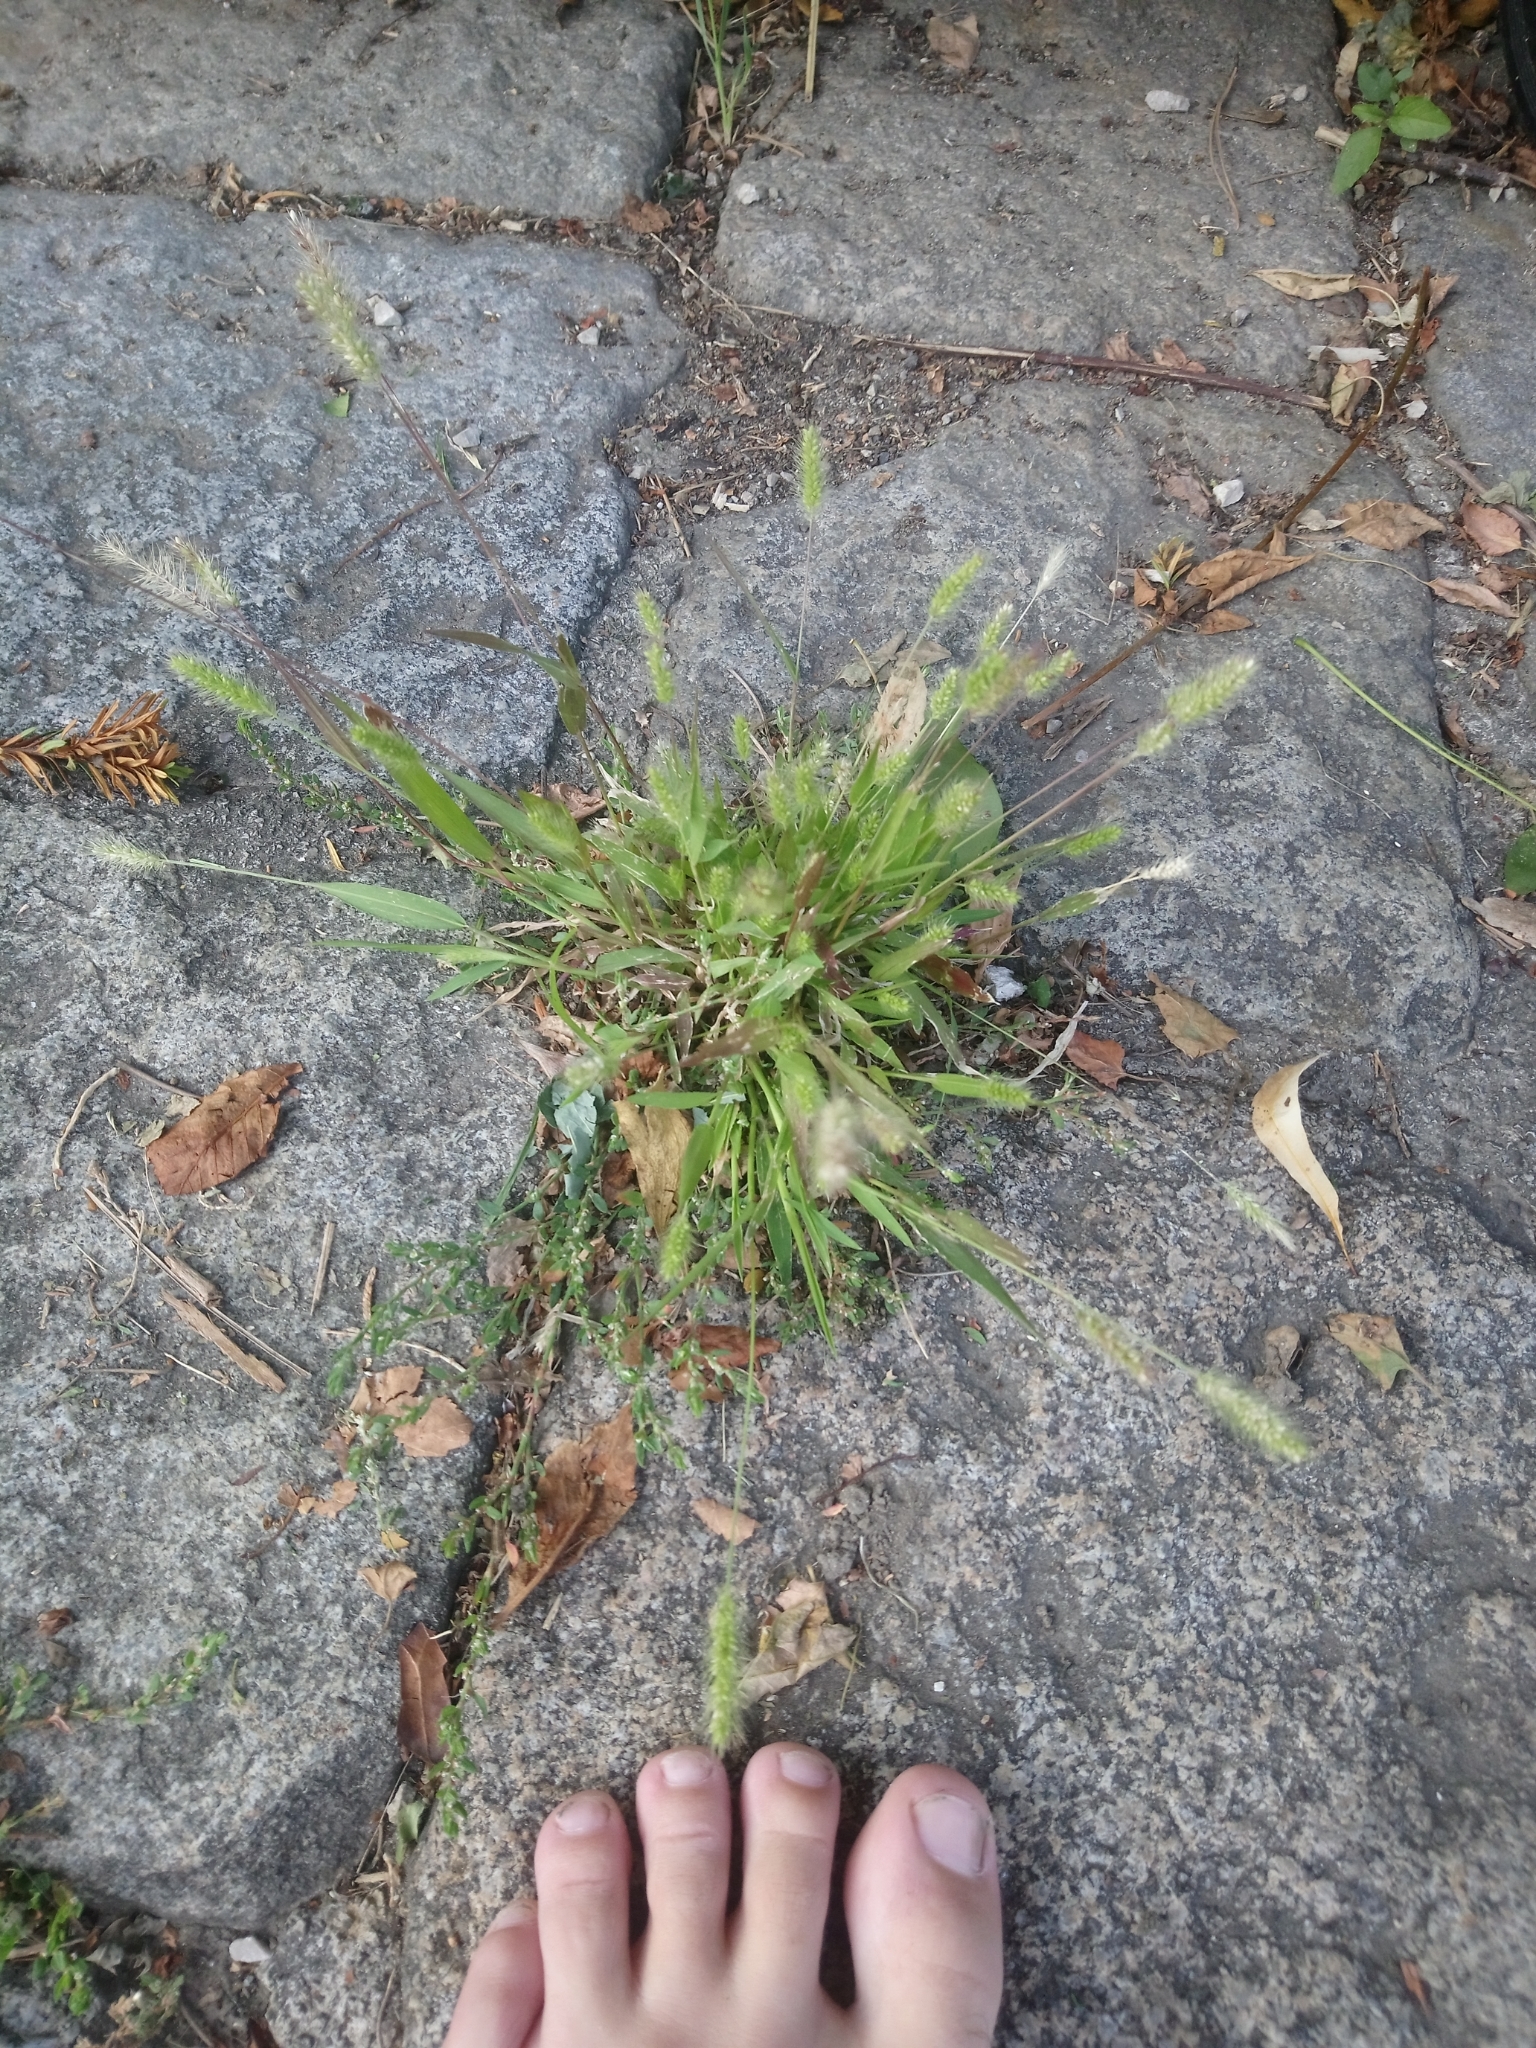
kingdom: Plantae
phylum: Tracheophyta
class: Liliopsida
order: Poales
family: Poaceae
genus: Setaria
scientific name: Setaria viridis
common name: Green bristlegrass
